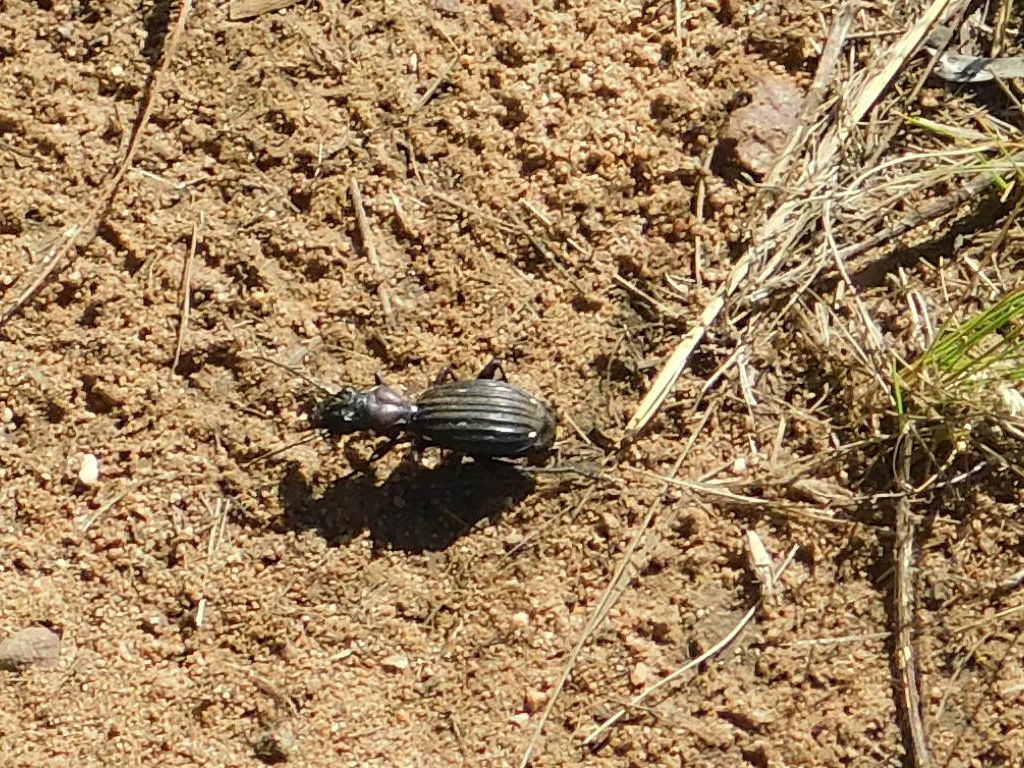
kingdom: Animalia
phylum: Arthropoda
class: Insecta
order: Coleoptera
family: Carabidae
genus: Anthia
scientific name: Anthia decemguttata
